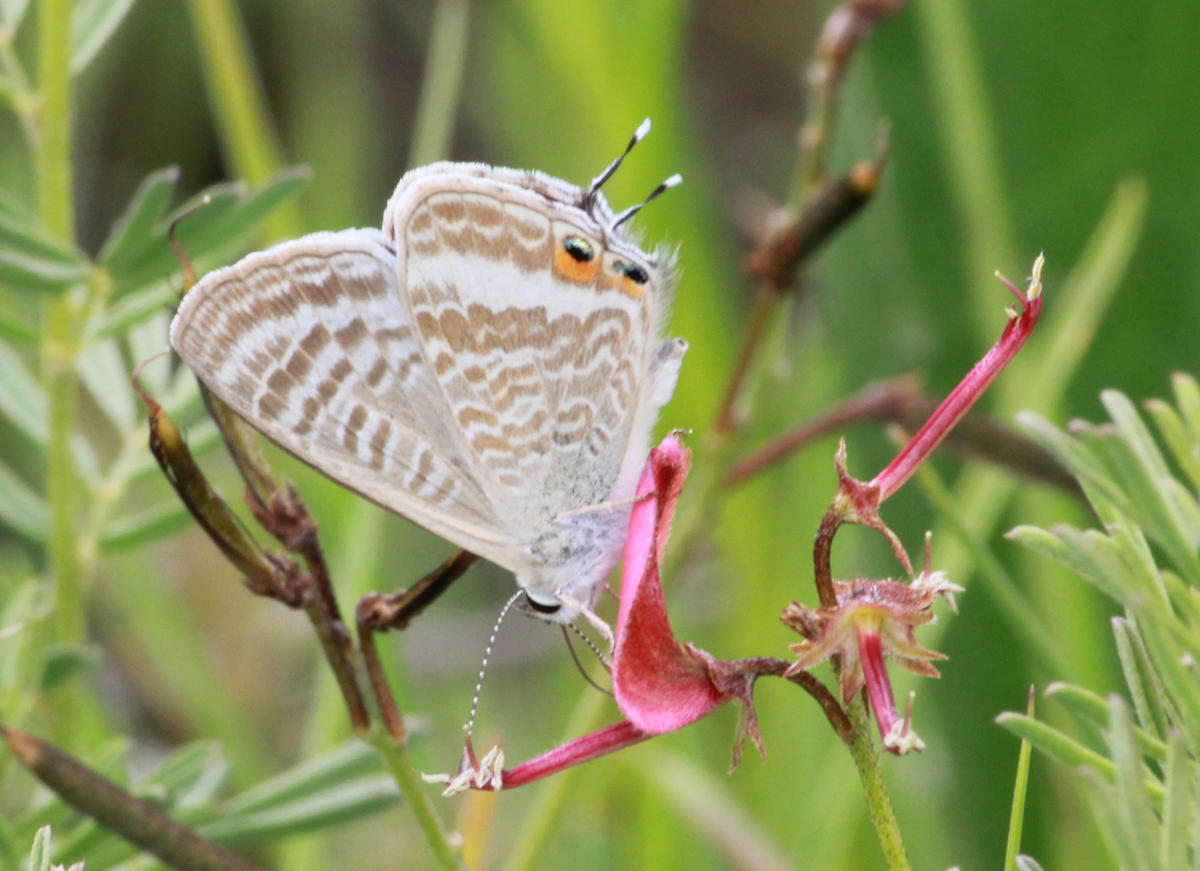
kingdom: Animalia
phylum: Arthropoda
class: Insecta
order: Lepidoptera
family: Lycaenidae
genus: Lampides
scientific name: Lampides boeticus
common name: Long-tailed blue
